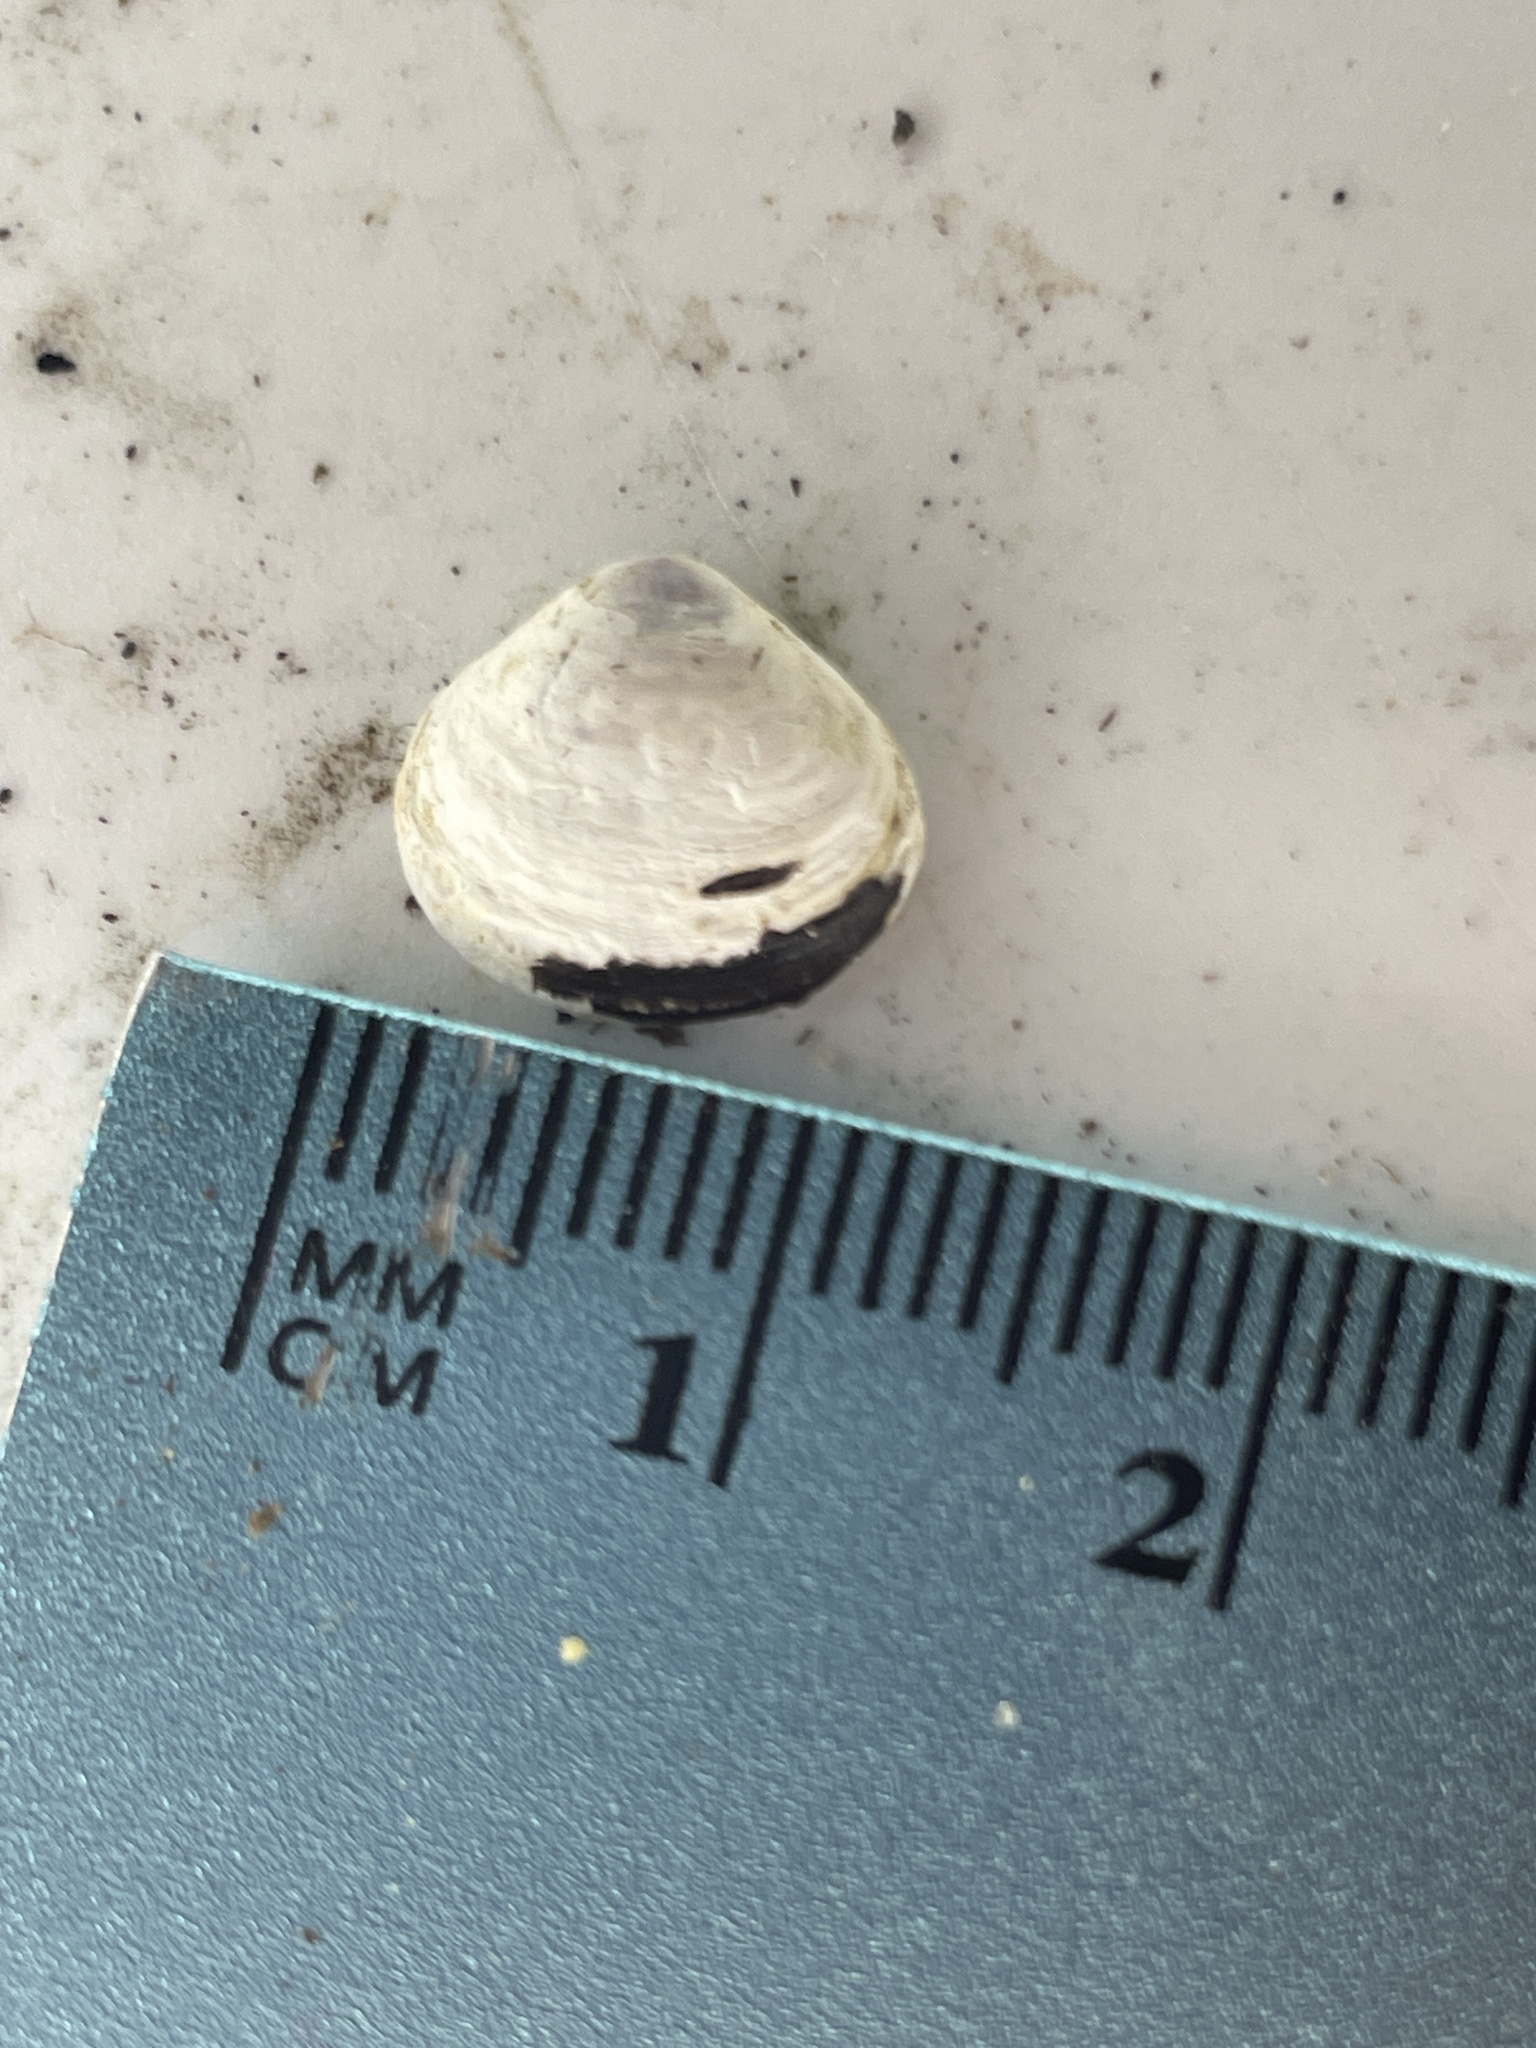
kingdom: Animalia
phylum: Mollusca
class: Bivalvia
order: Venerida
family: Cyrenidae
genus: Corbicula
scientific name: Corbicula fluminea
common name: Asian clam
